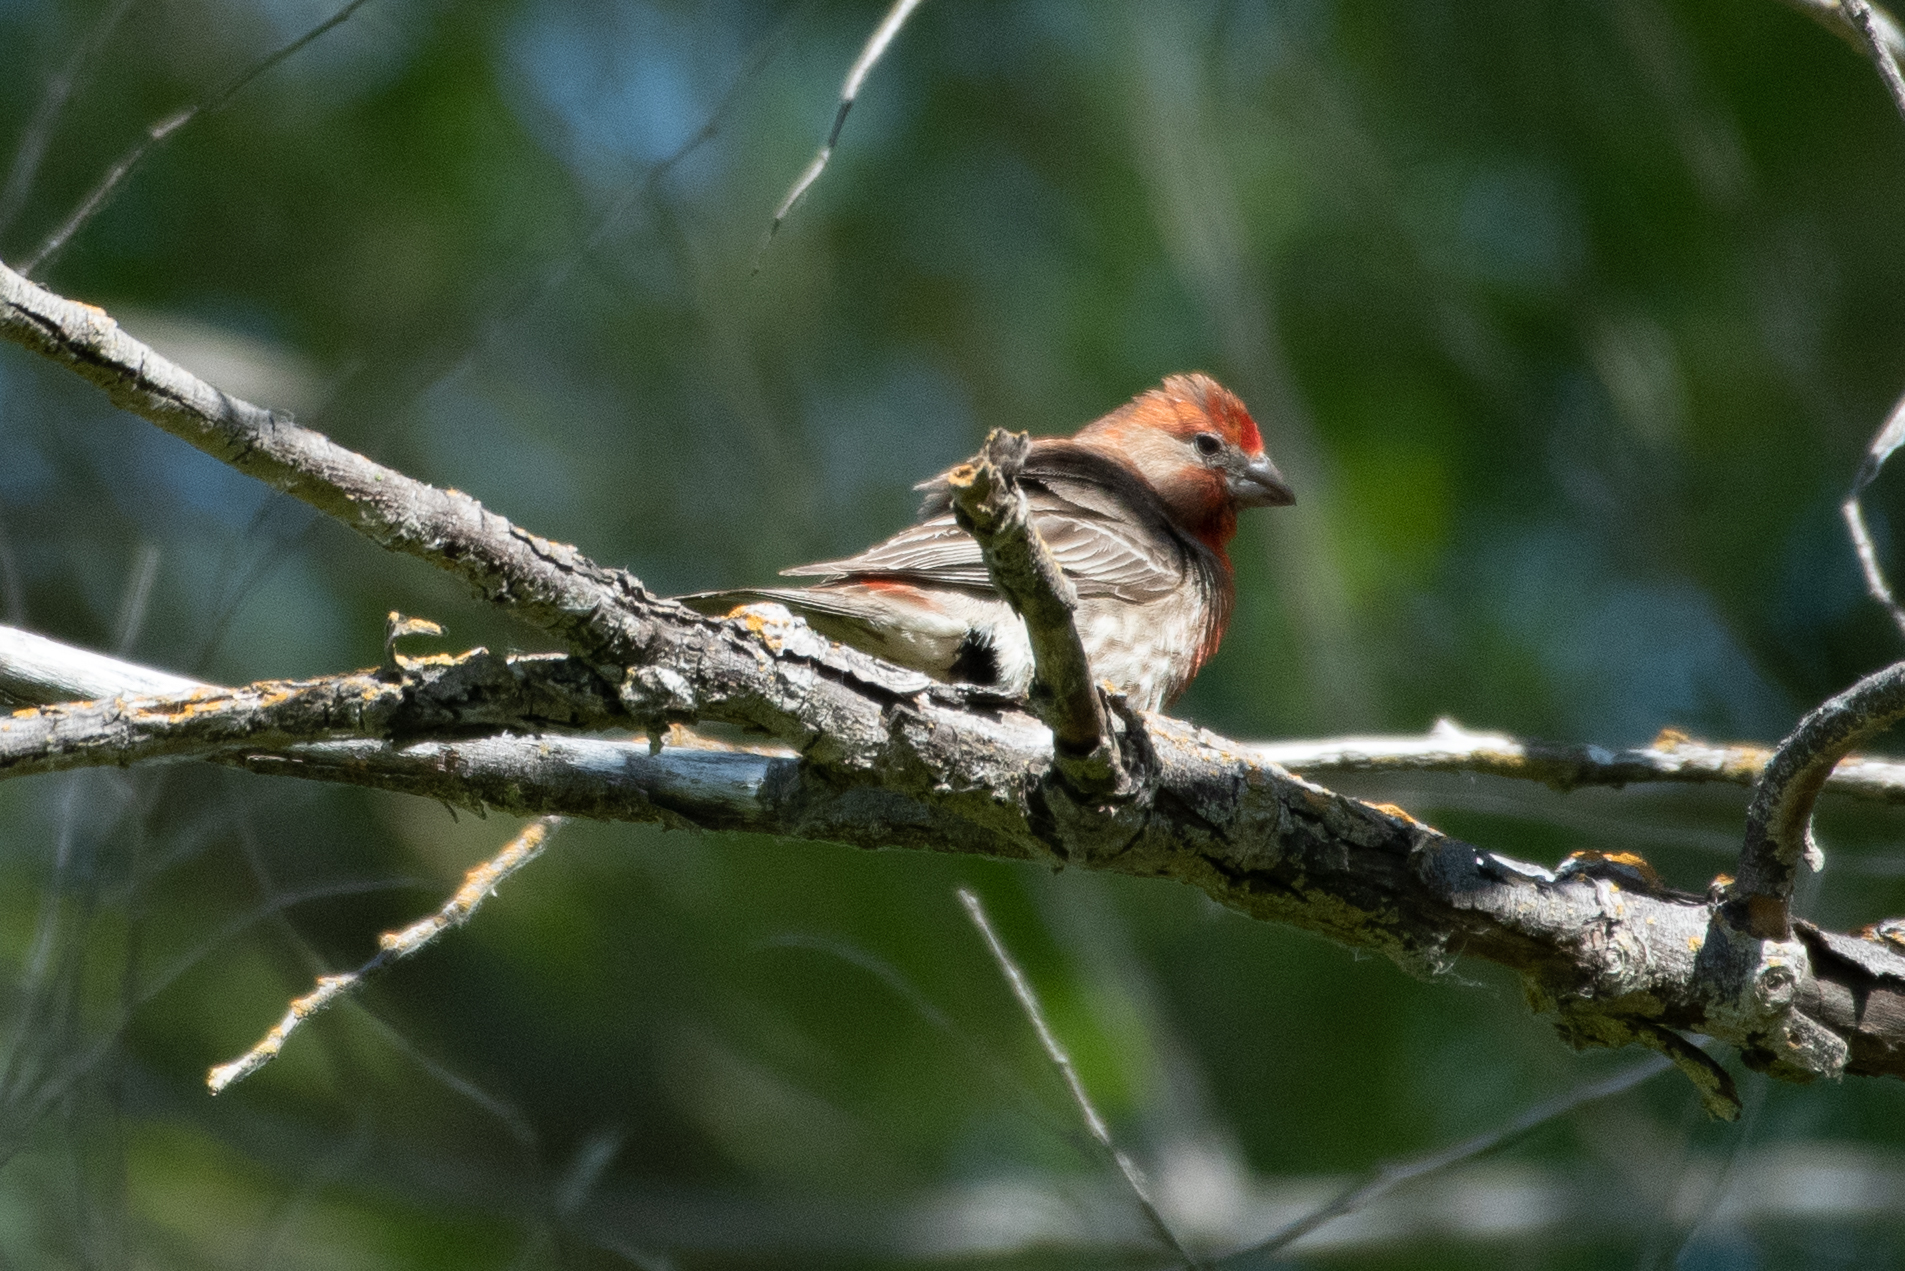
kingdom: Animalia
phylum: Chordata
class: Aves
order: Passeriformes
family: Fringillidae
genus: Haemorhous
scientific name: Haemorhous mexicanus
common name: House finch
